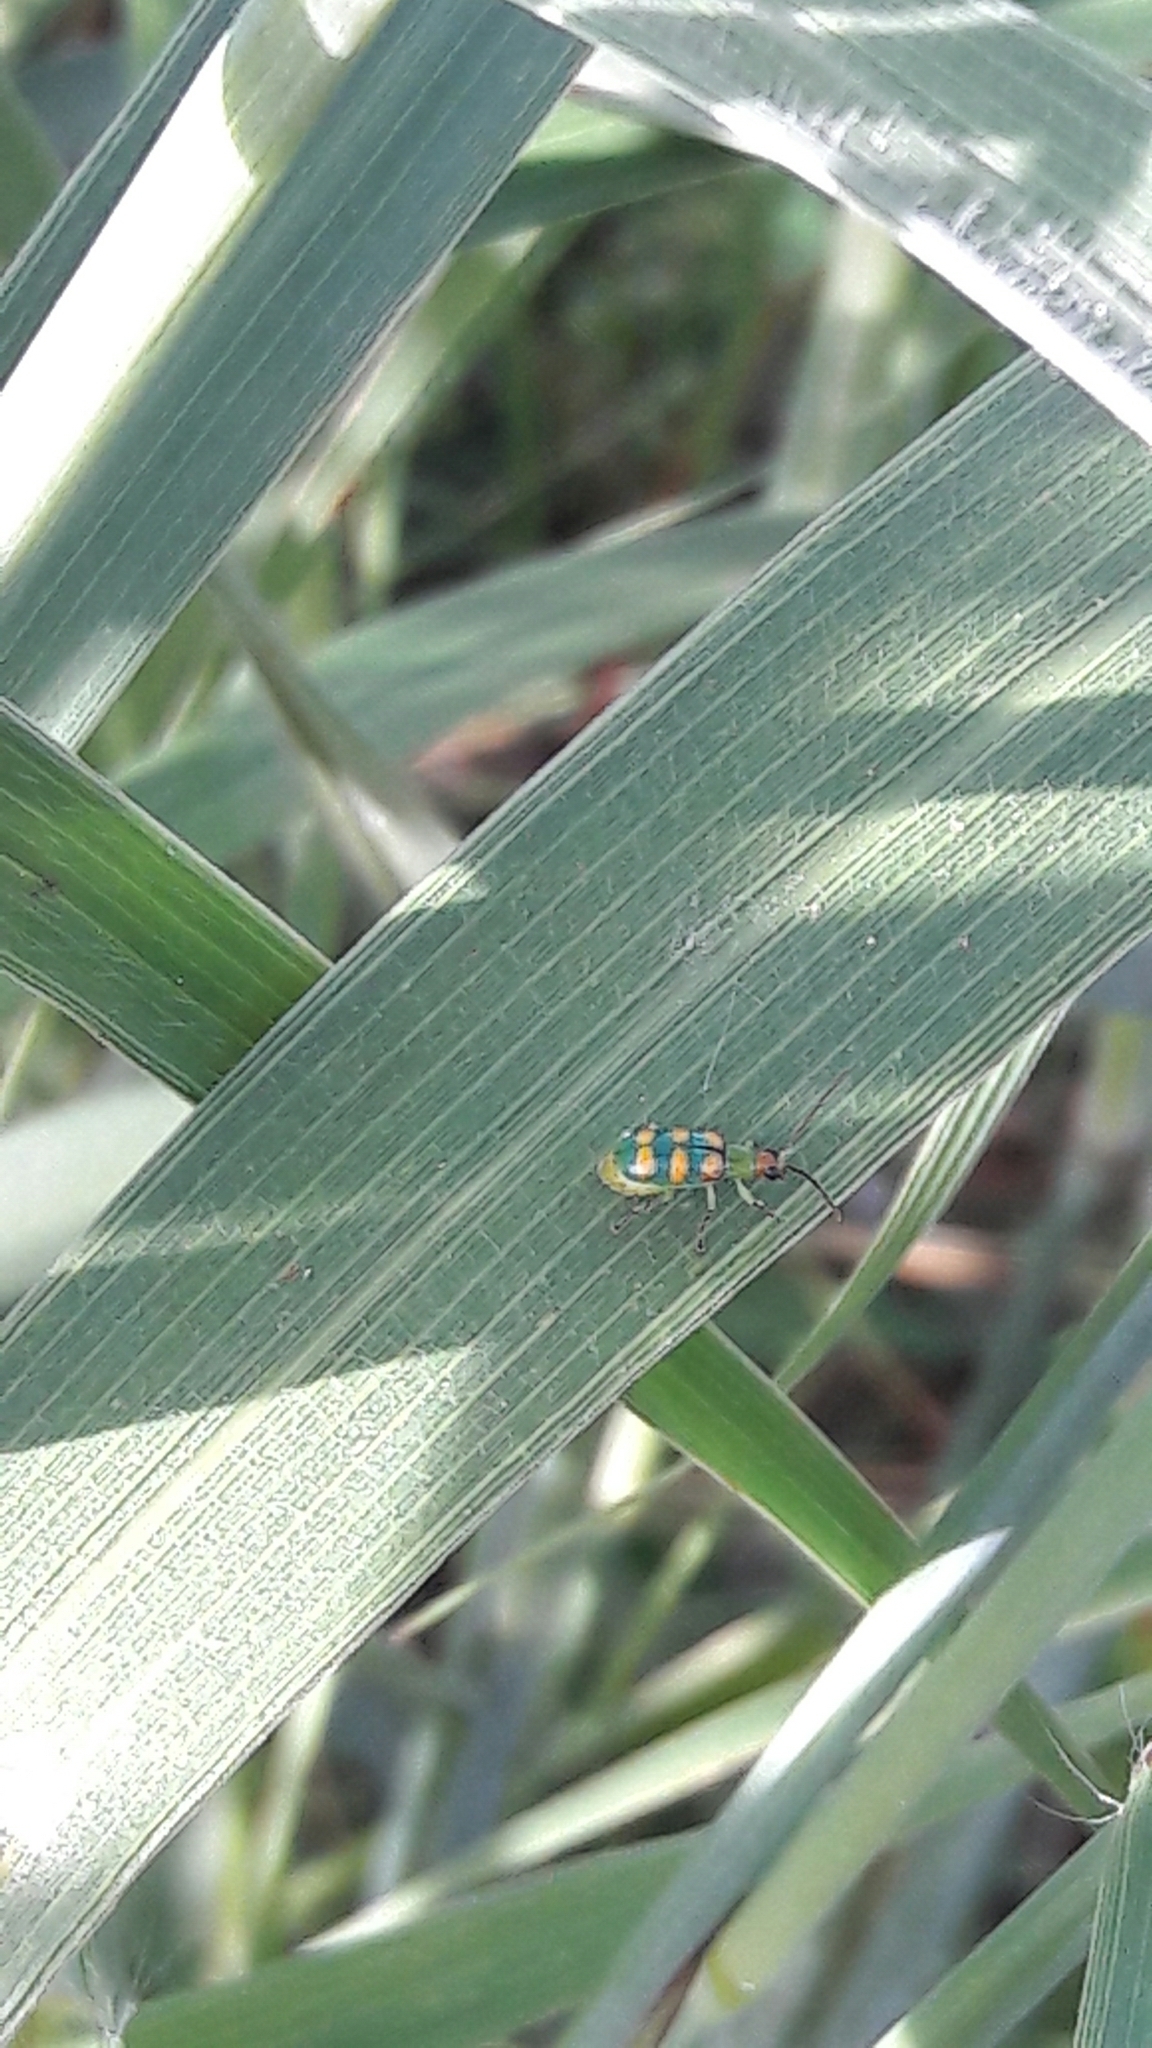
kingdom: Animalia
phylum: Arthropoda
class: Insecta
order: Coleoptera
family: Chrysomelidae
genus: Diabrotica
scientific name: Diabrotica speciosa
